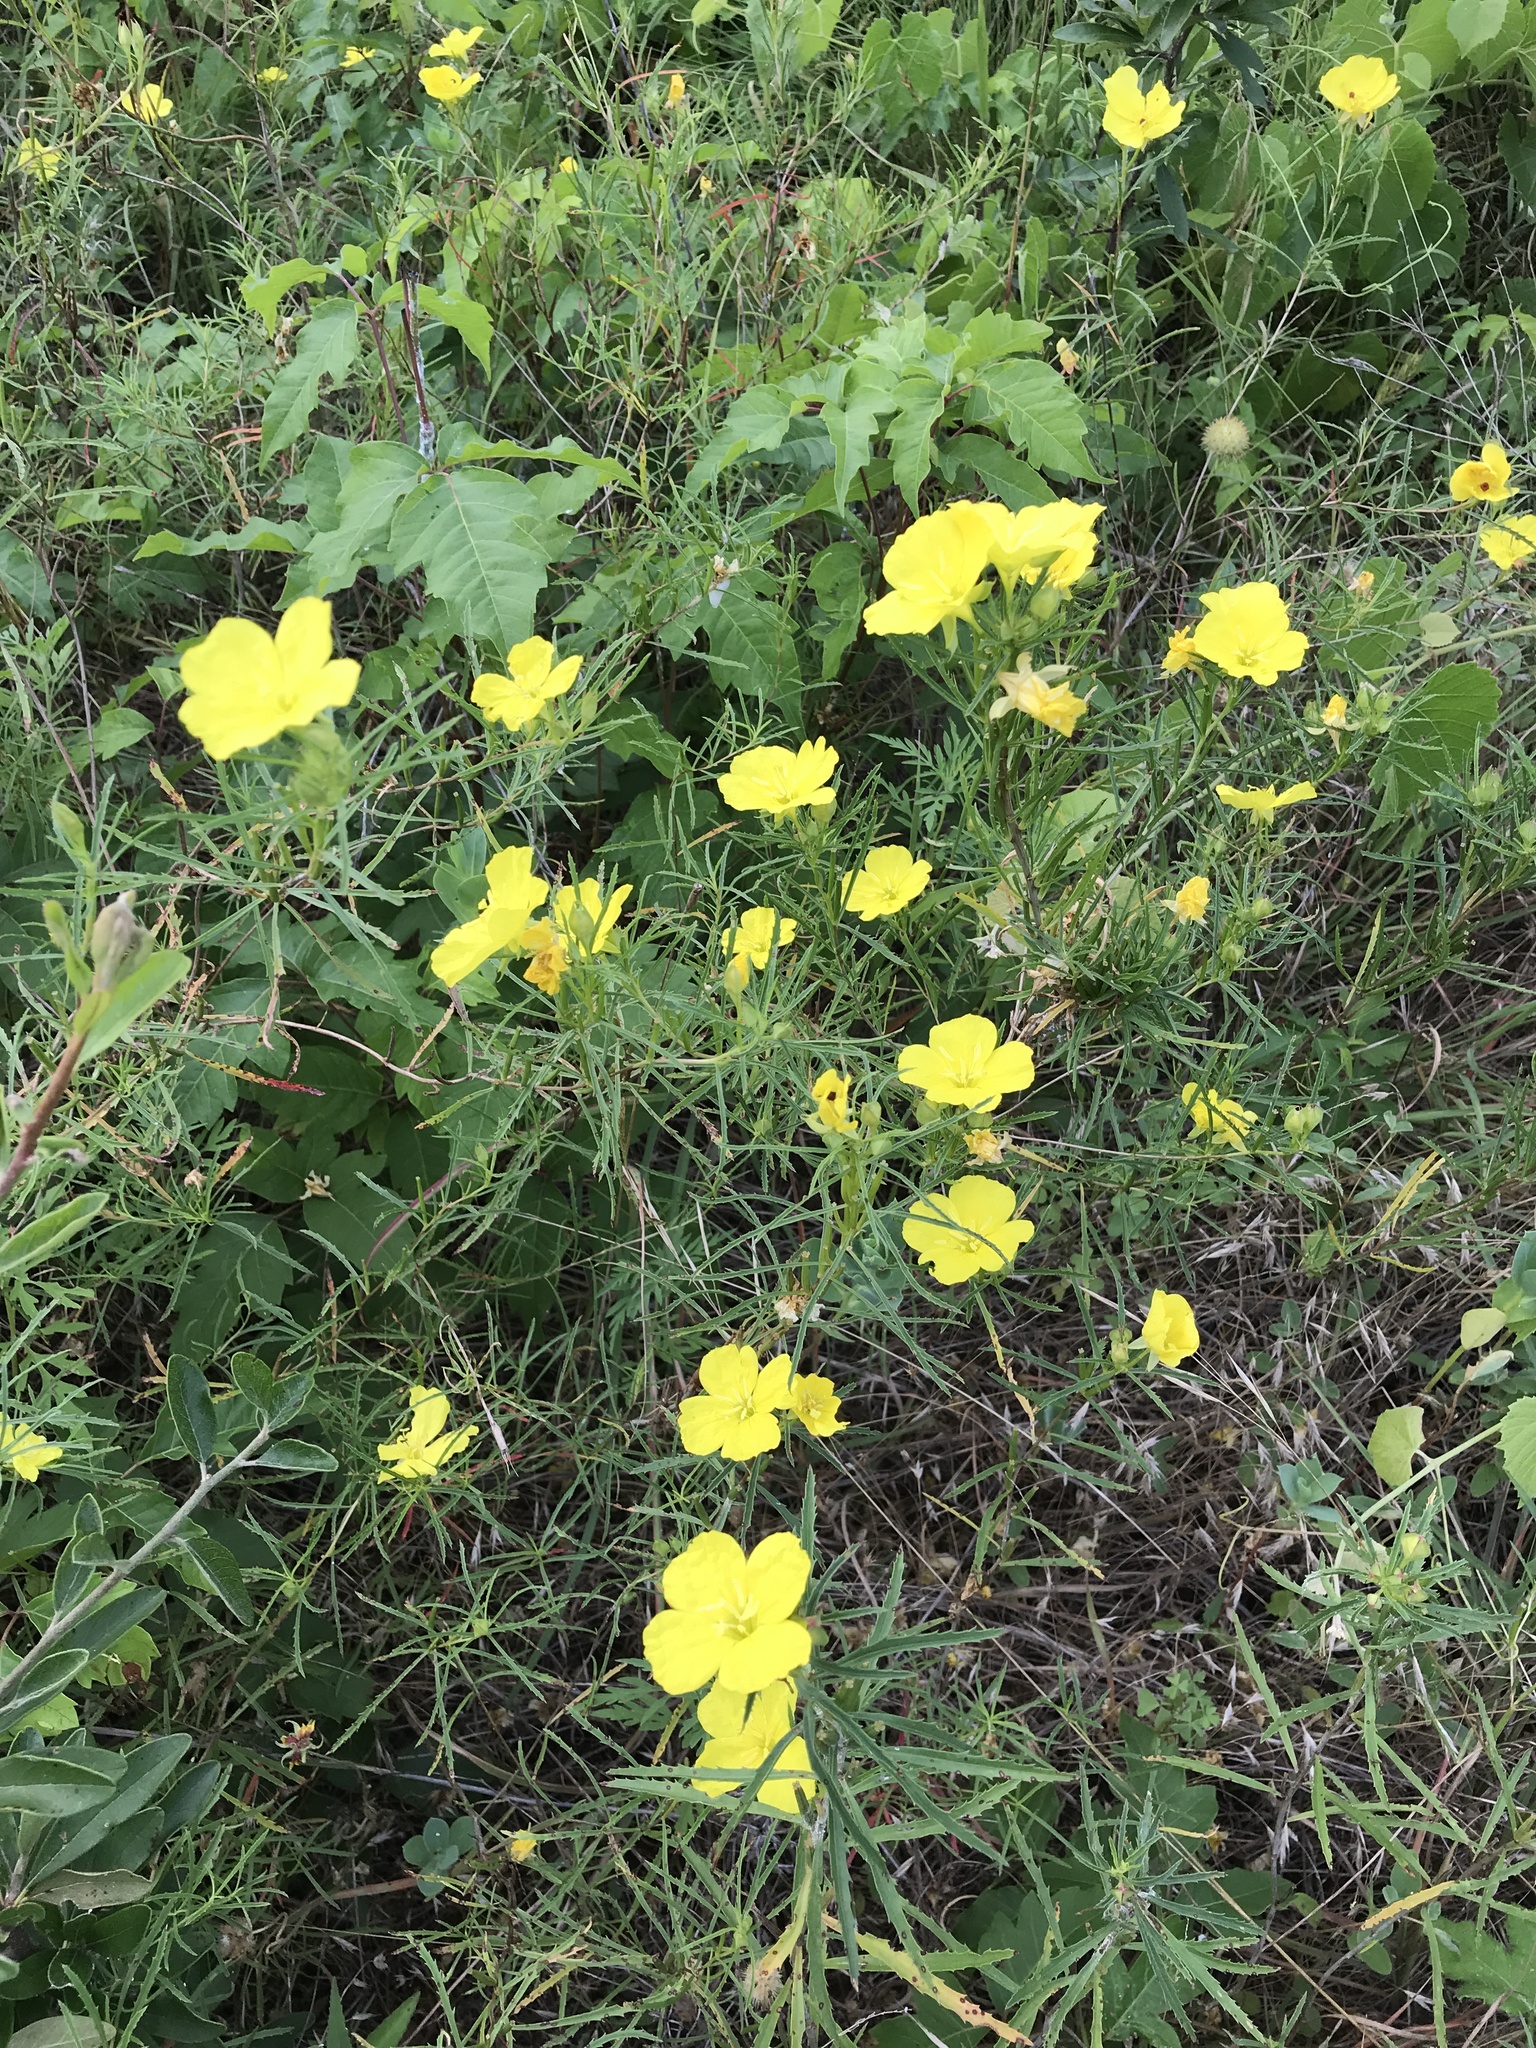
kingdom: Plantae
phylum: Tracheophyta
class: Magnoliopsida
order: Myrtales
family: Onagraceae
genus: Oenothera
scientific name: Oenothera
